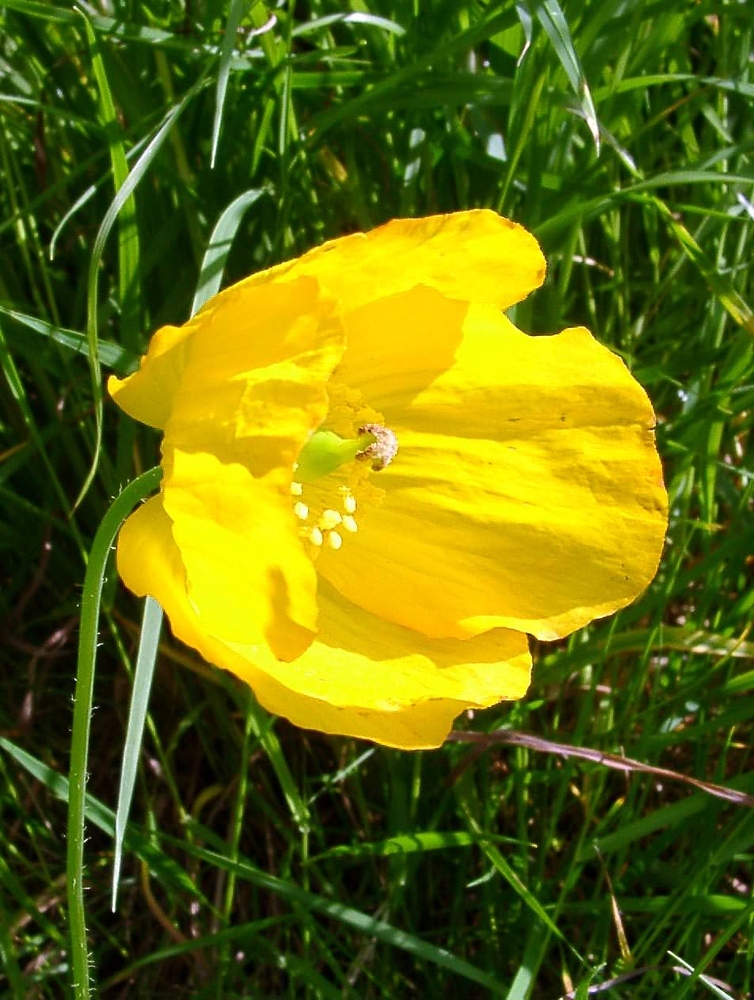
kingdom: Plantae
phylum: Tracheophyta
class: Magnoliopsida
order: Ranunculales
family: Papaveraceae
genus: Papaver
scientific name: Papaver cambricum
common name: Poppy
